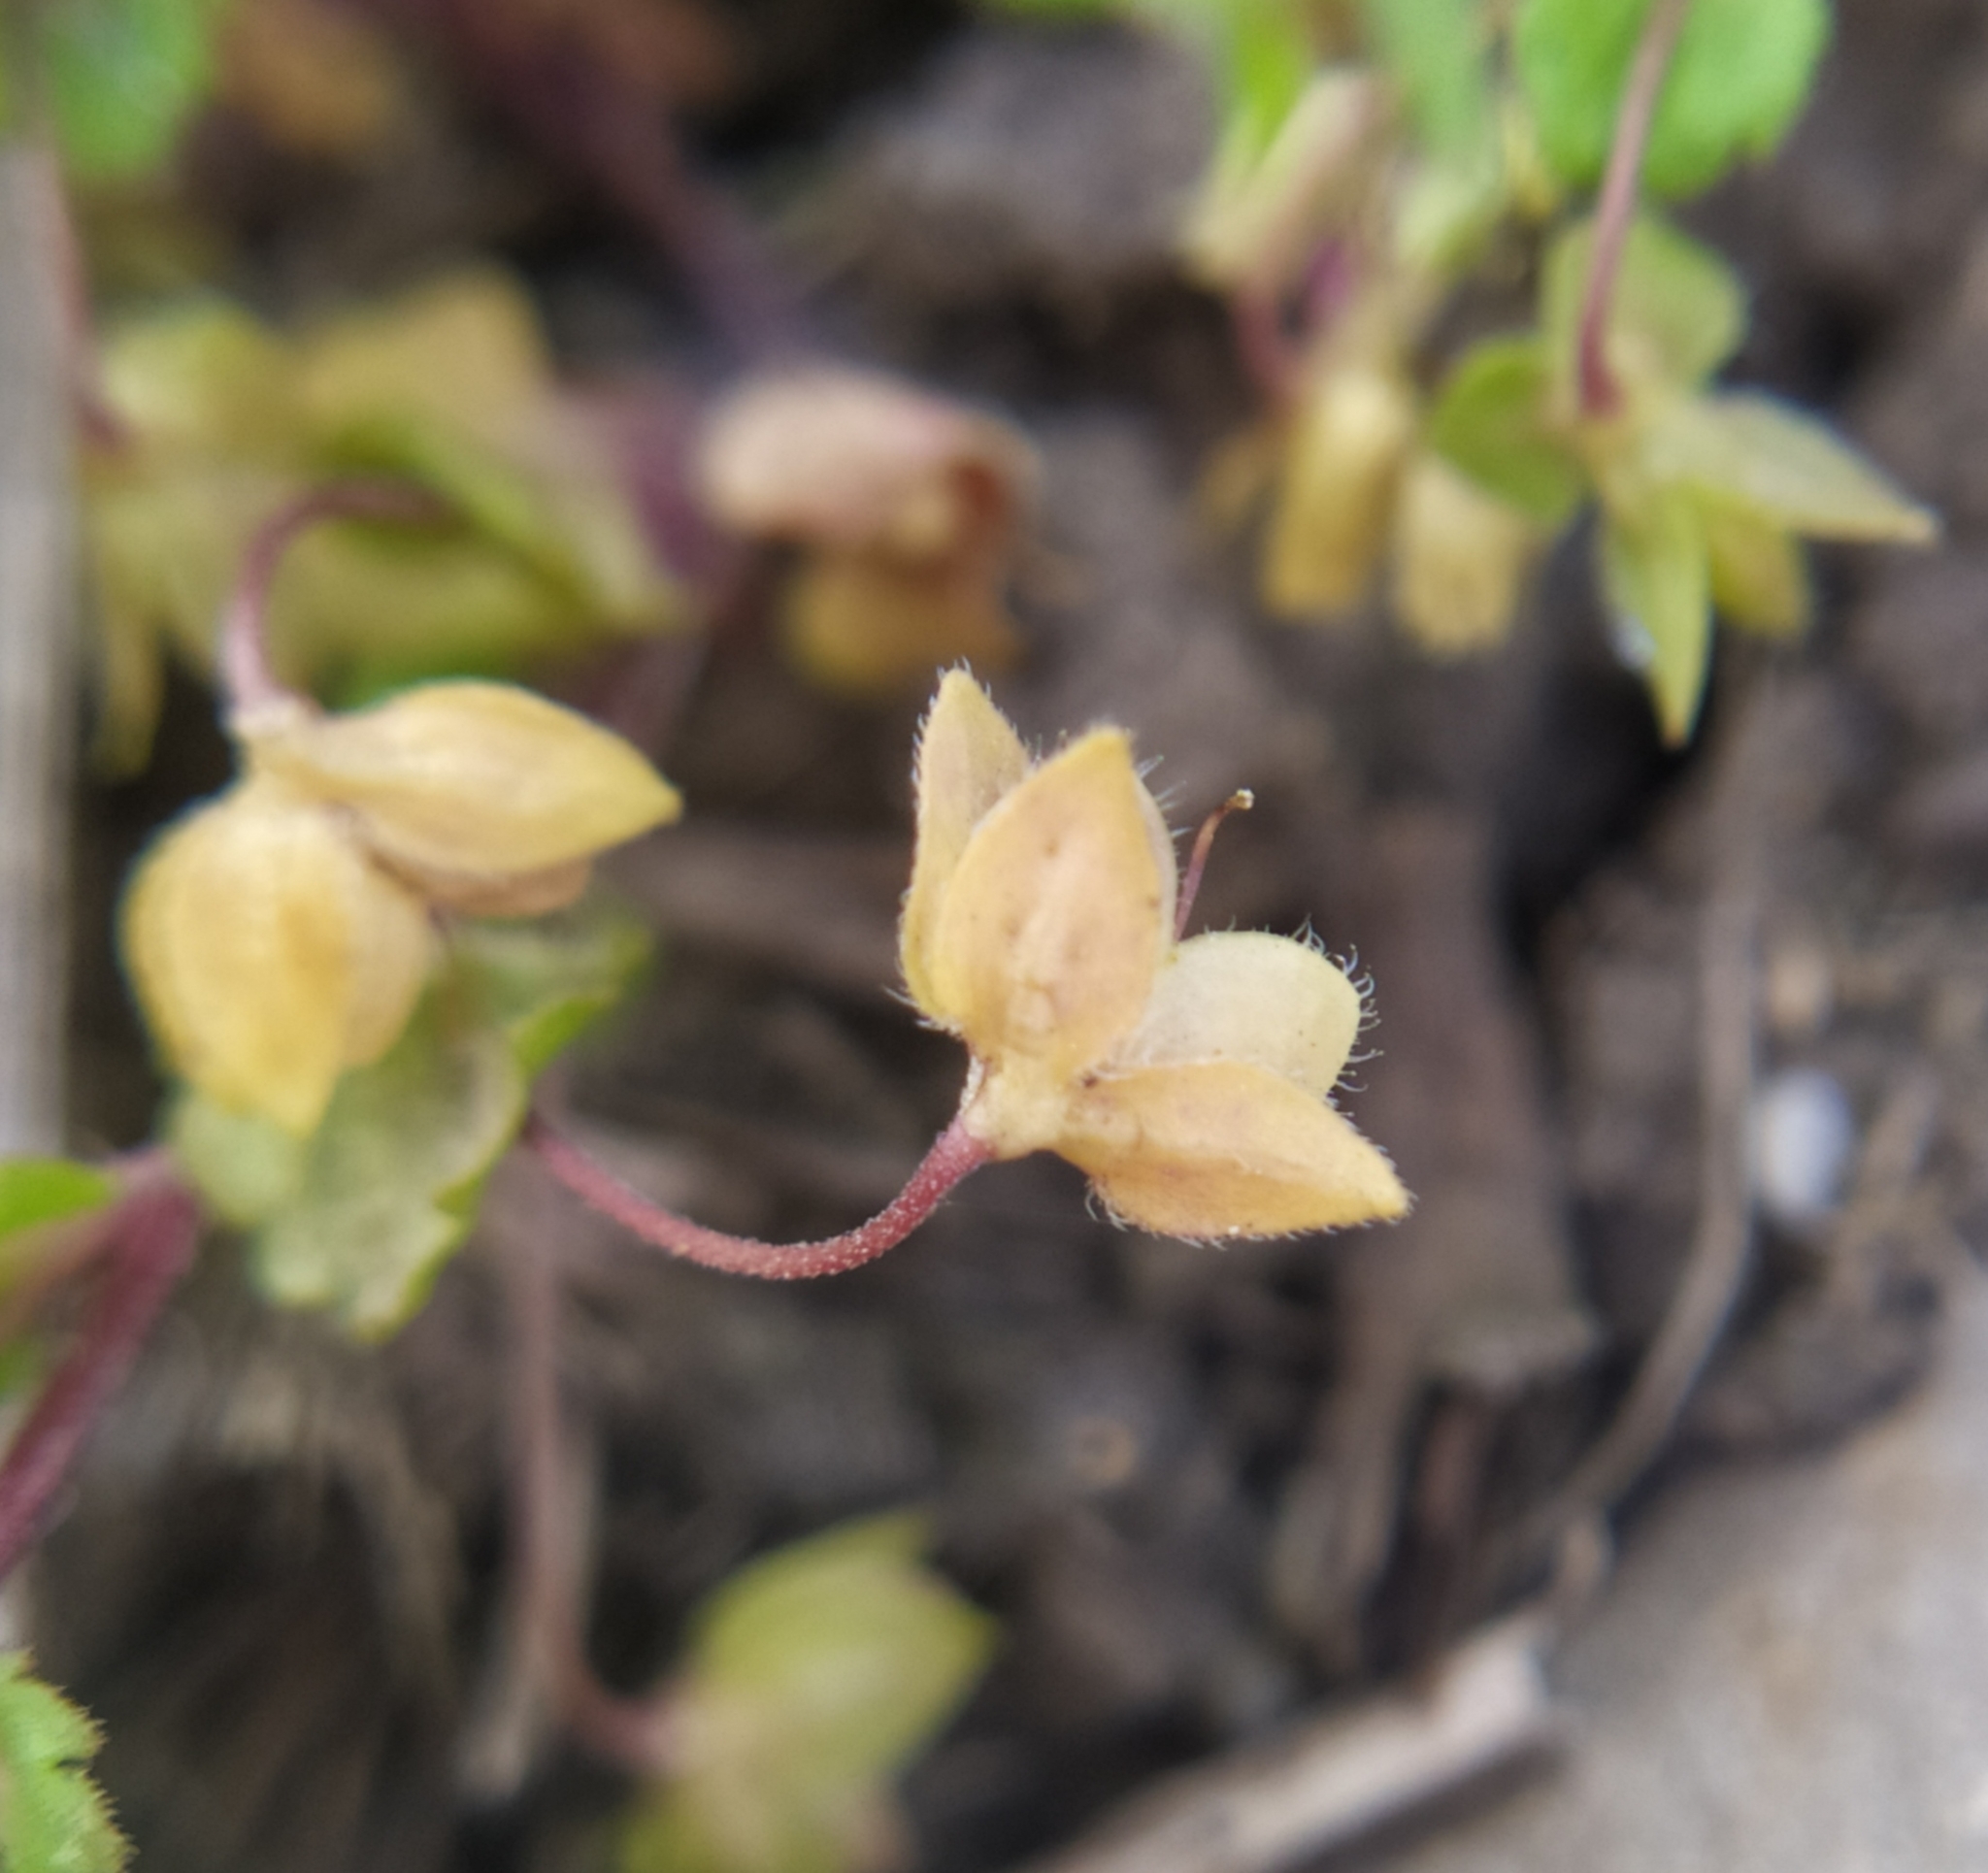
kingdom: Plantae
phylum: Tracheophyta
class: Magnoliopsida
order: Lamiales
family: Plantaginaceae
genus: Veronica
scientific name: Veronica persica
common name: Common field-speedwell
